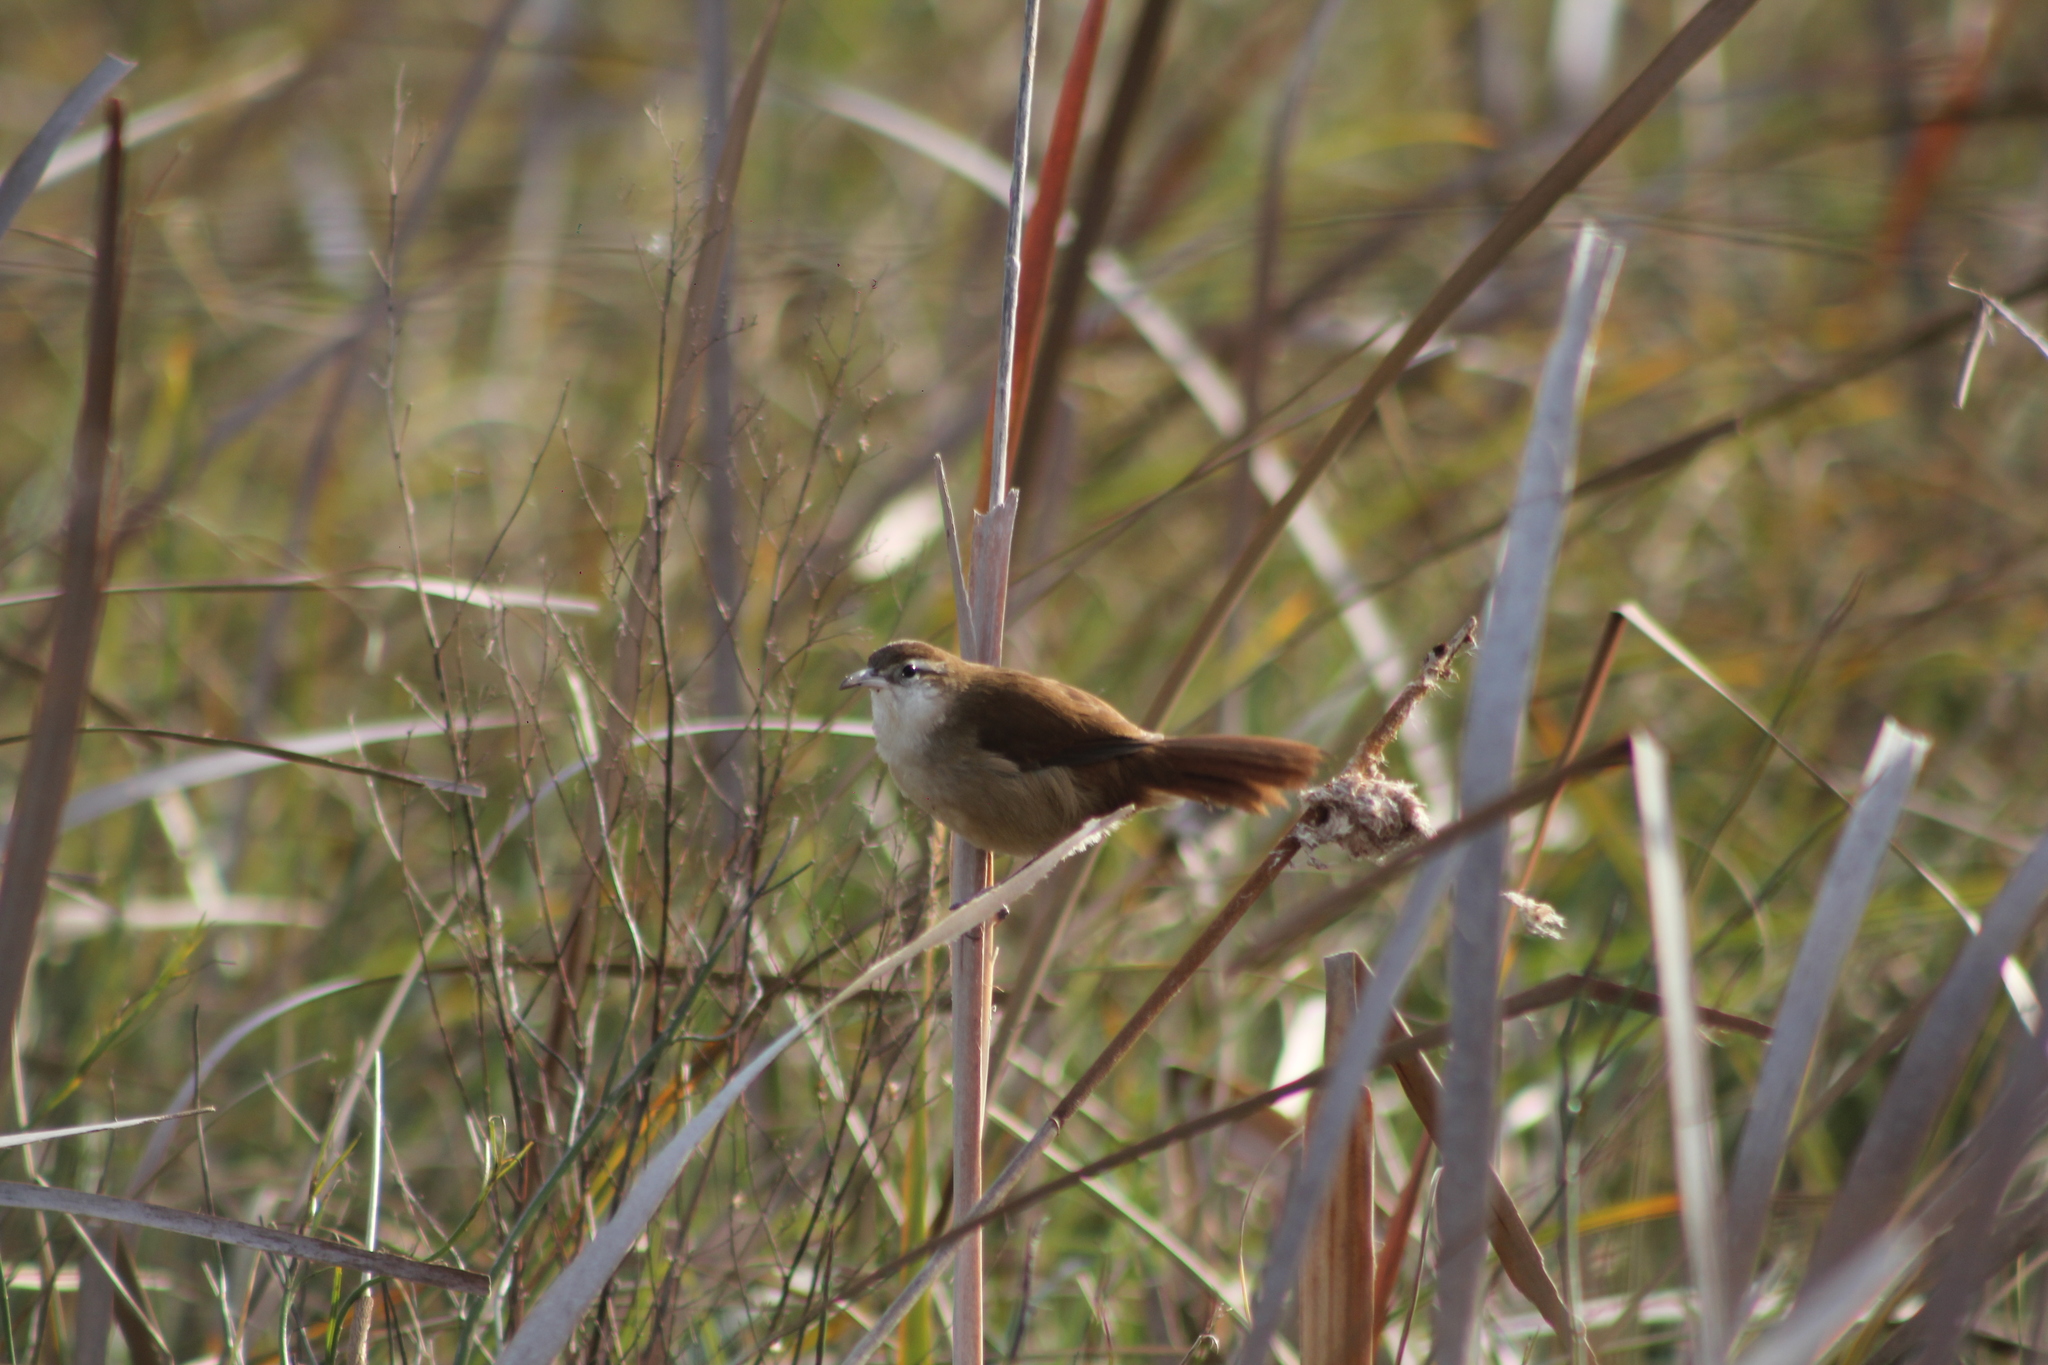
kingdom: Animalia
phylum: Chordata
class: Aves
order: Passeriformes
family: Furnariidae
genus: Limnornis
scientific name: Limnornis curvirostris
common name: Curve-billed reedhaunter
